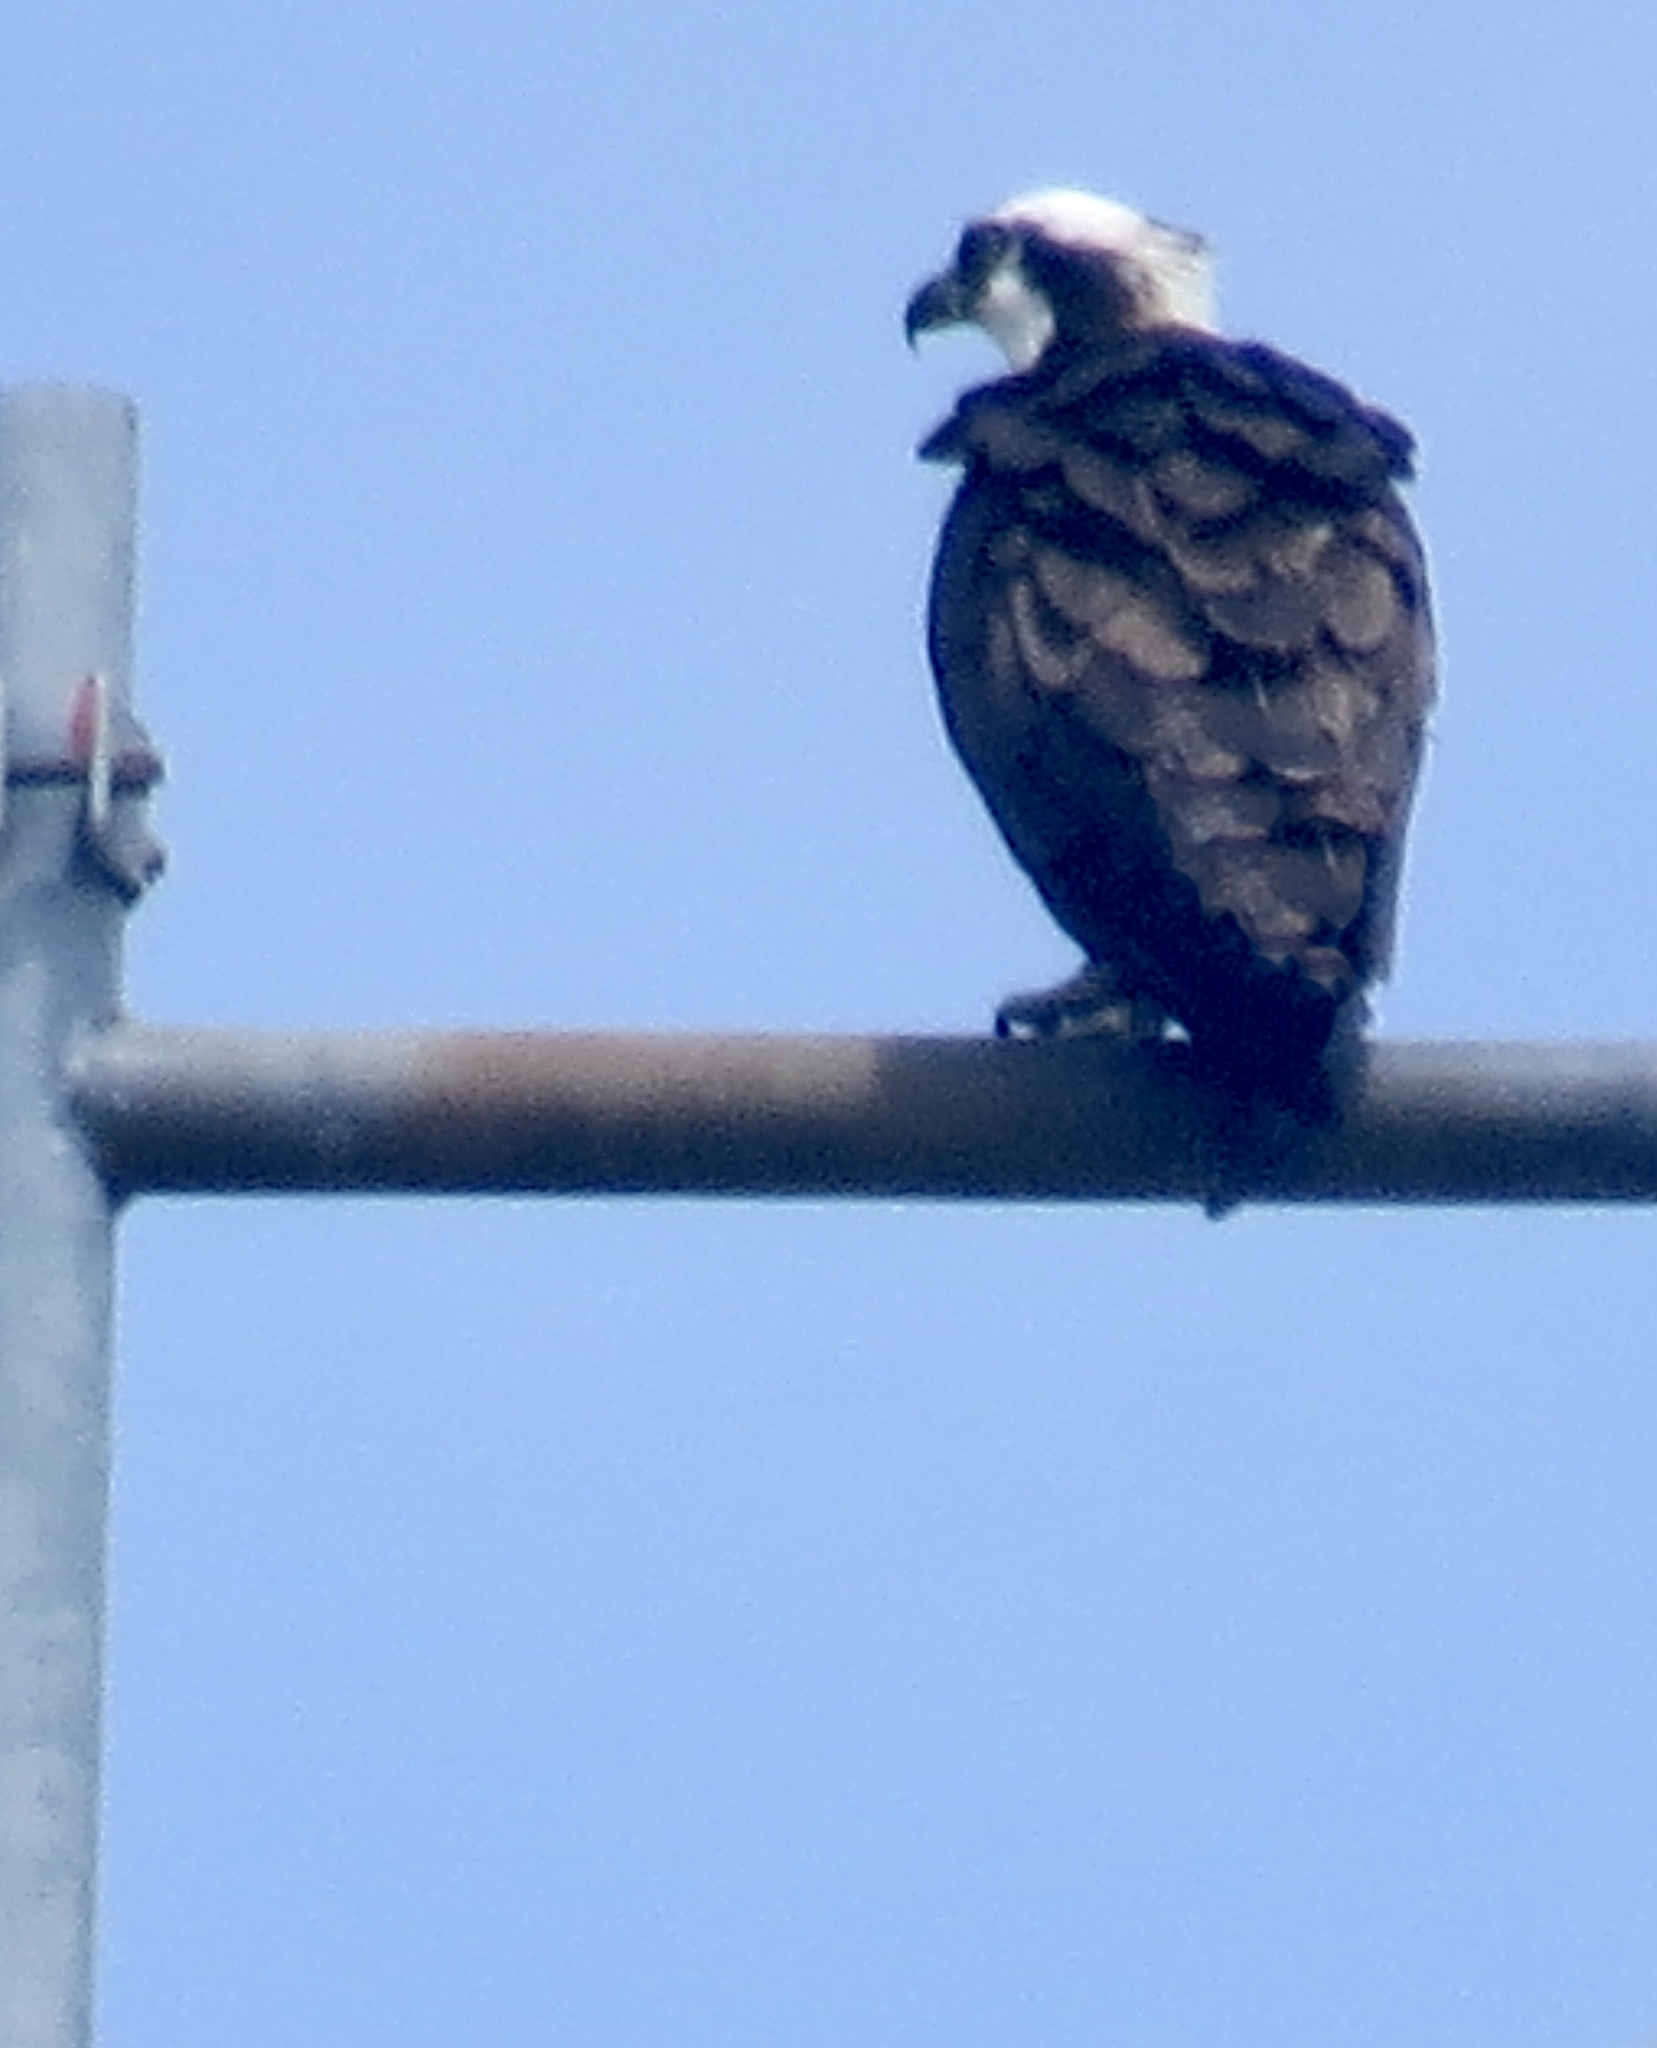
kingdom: Animalia
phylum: Chordata
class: Aves
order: Accipitriformes
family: Pandionidae
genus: Pandion
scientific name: Pandion haliaetus
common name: Osprey
